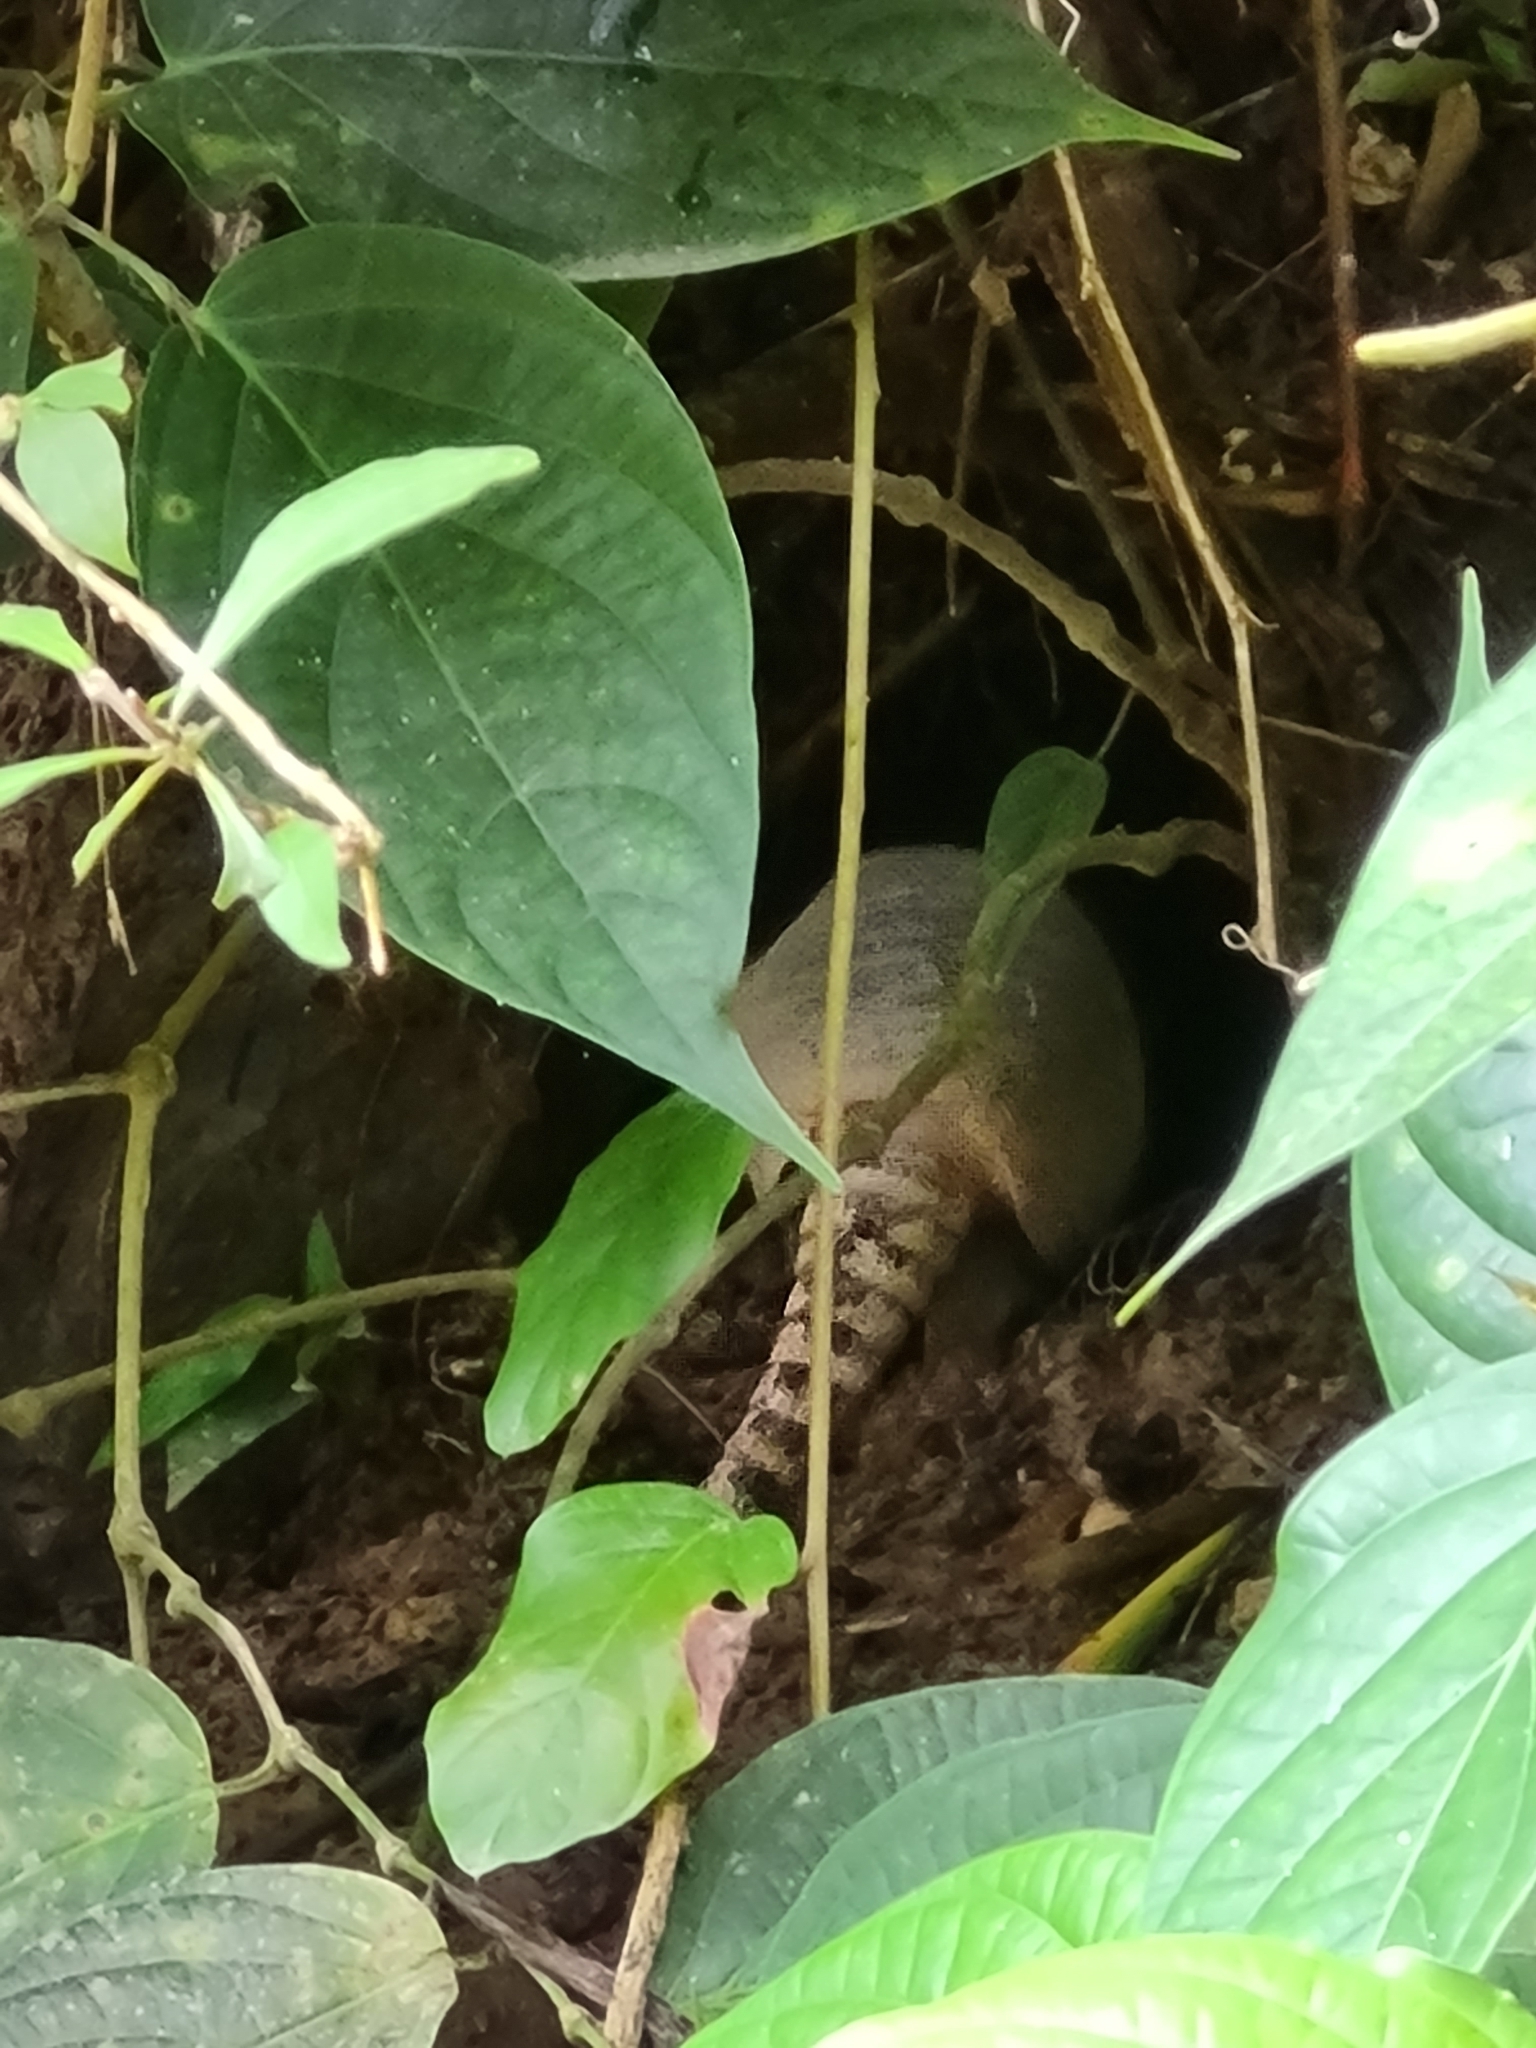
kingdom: Animalia
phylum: Chordata
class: Mammalia
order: Cingulata
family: Dasypodidae
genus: Dasypus
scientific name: Dasypus novemcinctus
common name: Nine-banded armadillo
